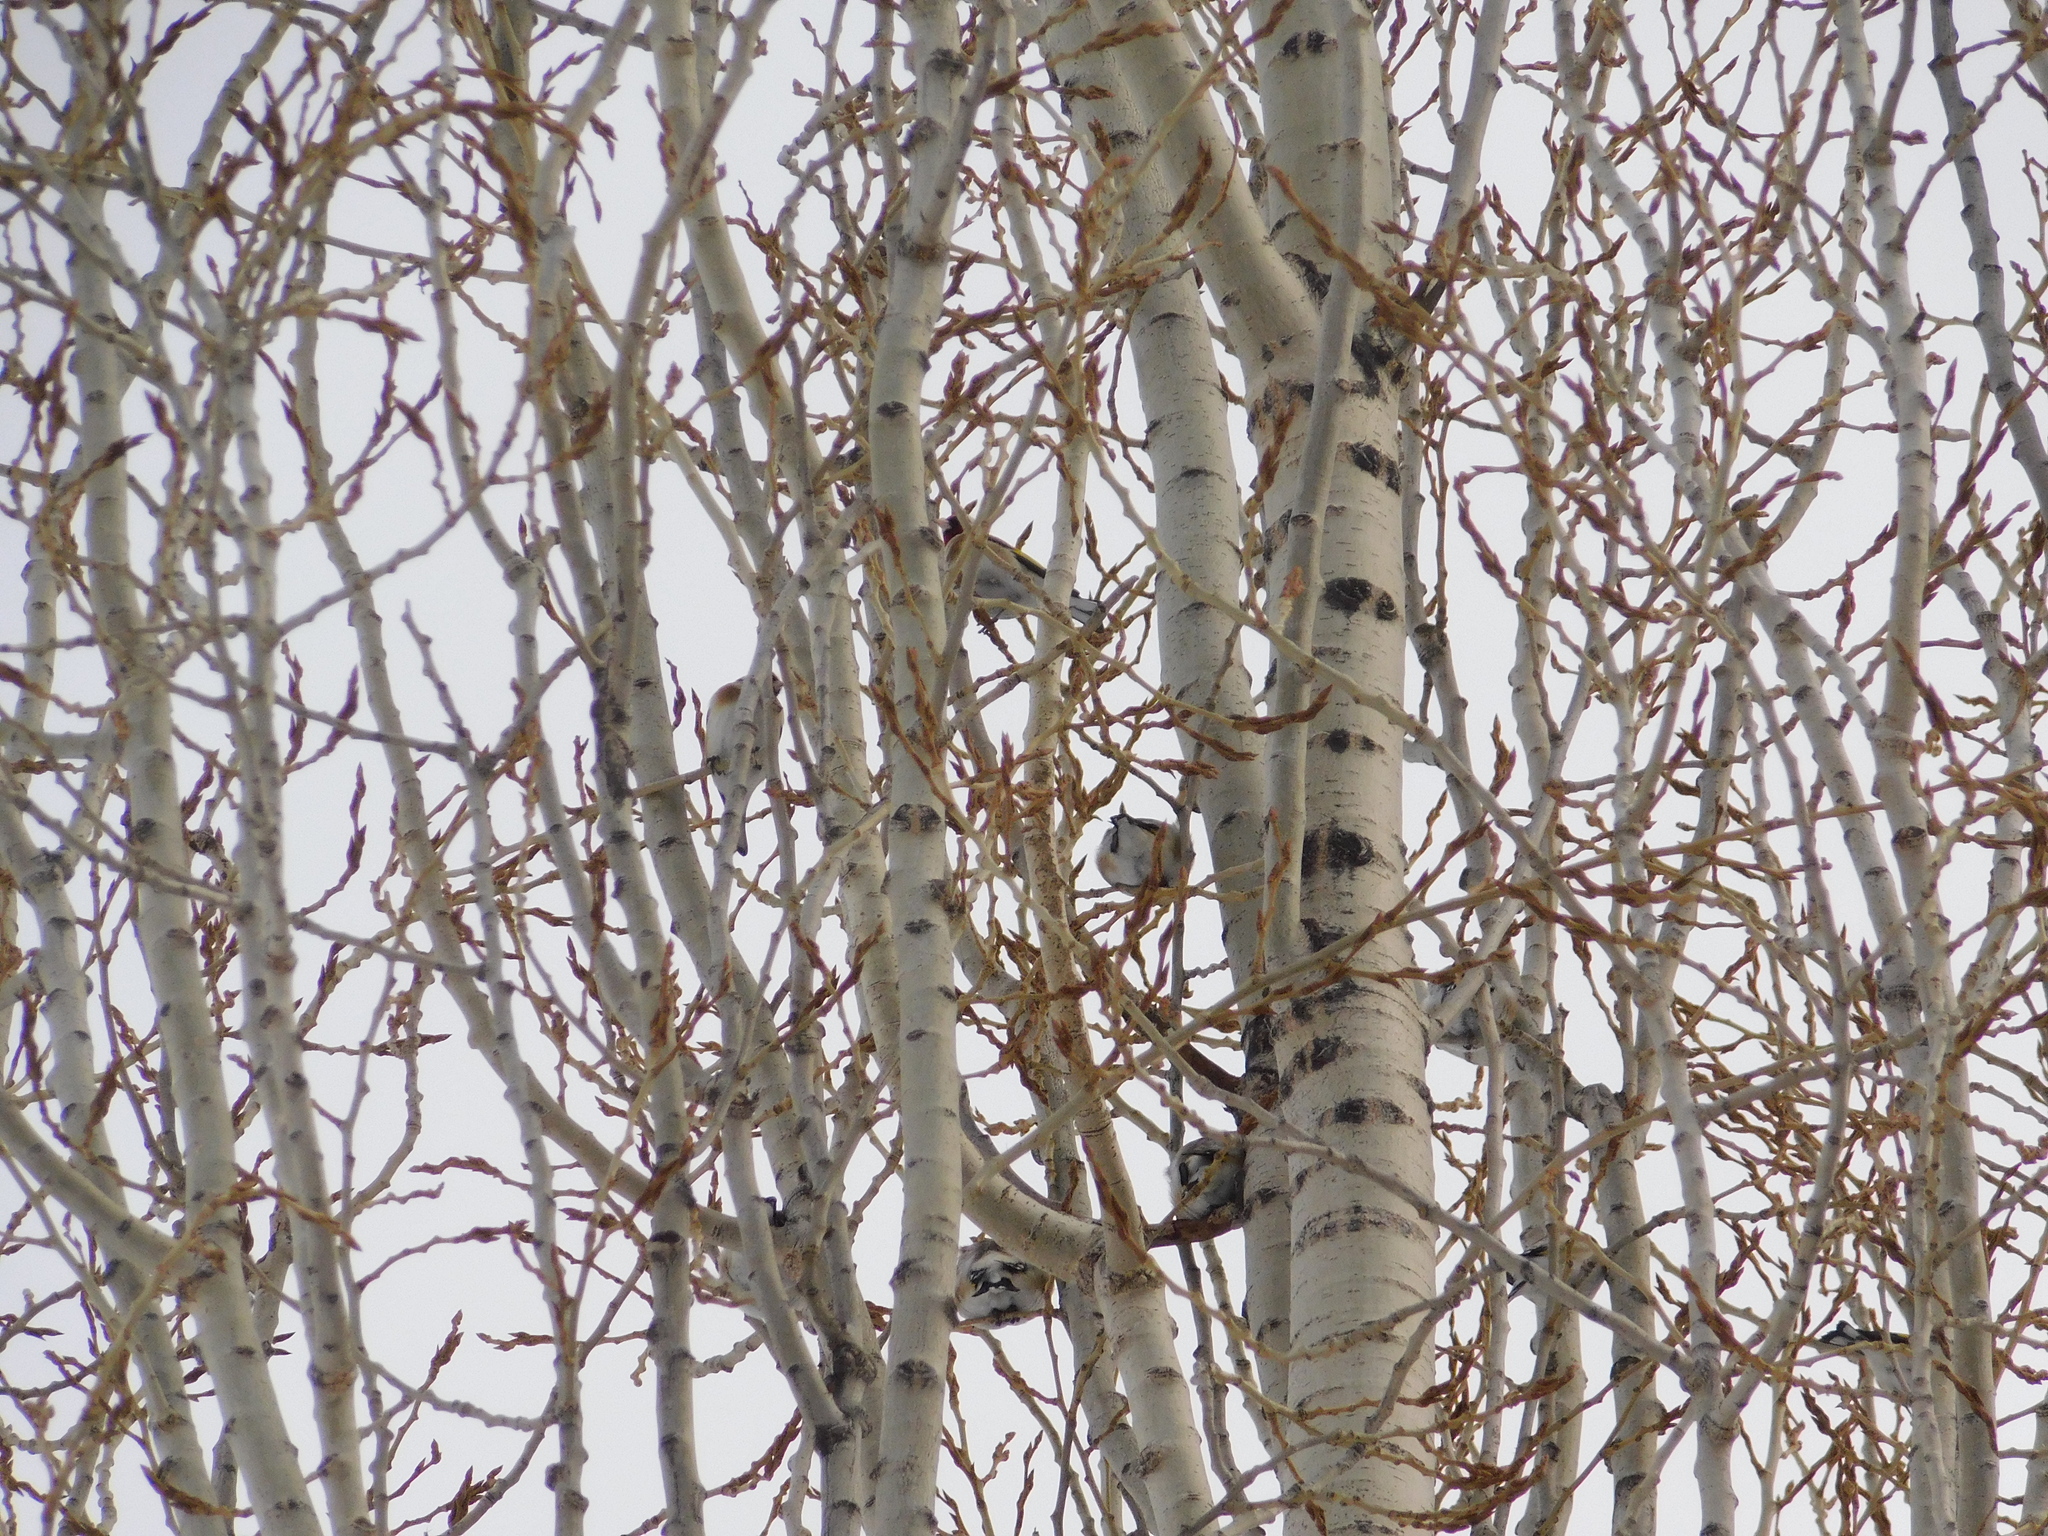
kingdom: Animalia
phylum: Chordata
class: Aves
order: Passeriformes
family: Fringillidae
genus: Carduelis
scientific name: Carduelis carduelis
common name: European goldfinch
